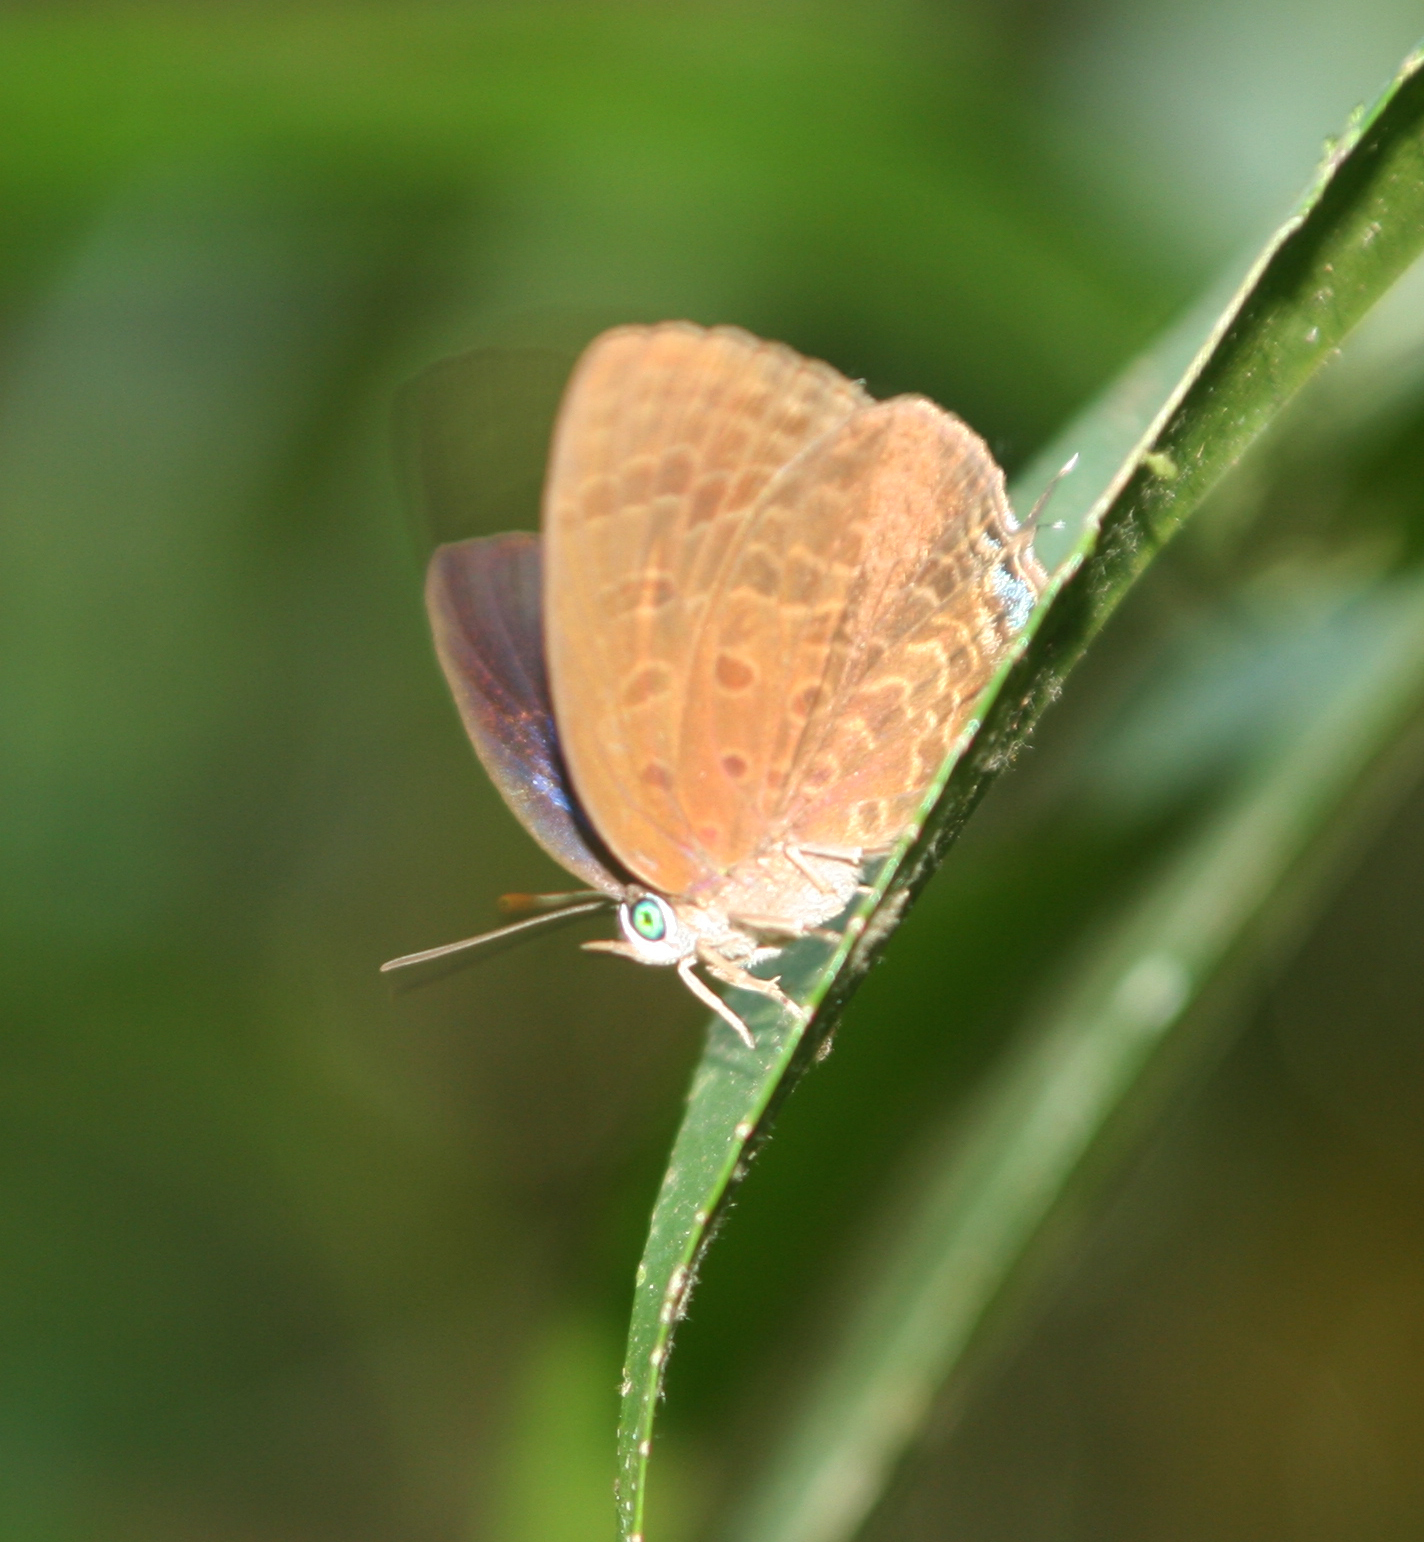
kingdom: Animalia
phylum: Arthropoda
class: Insecta
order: Lepidoptera
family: Lycaenidae
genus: Arhopala
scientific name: Arhopala agrata
